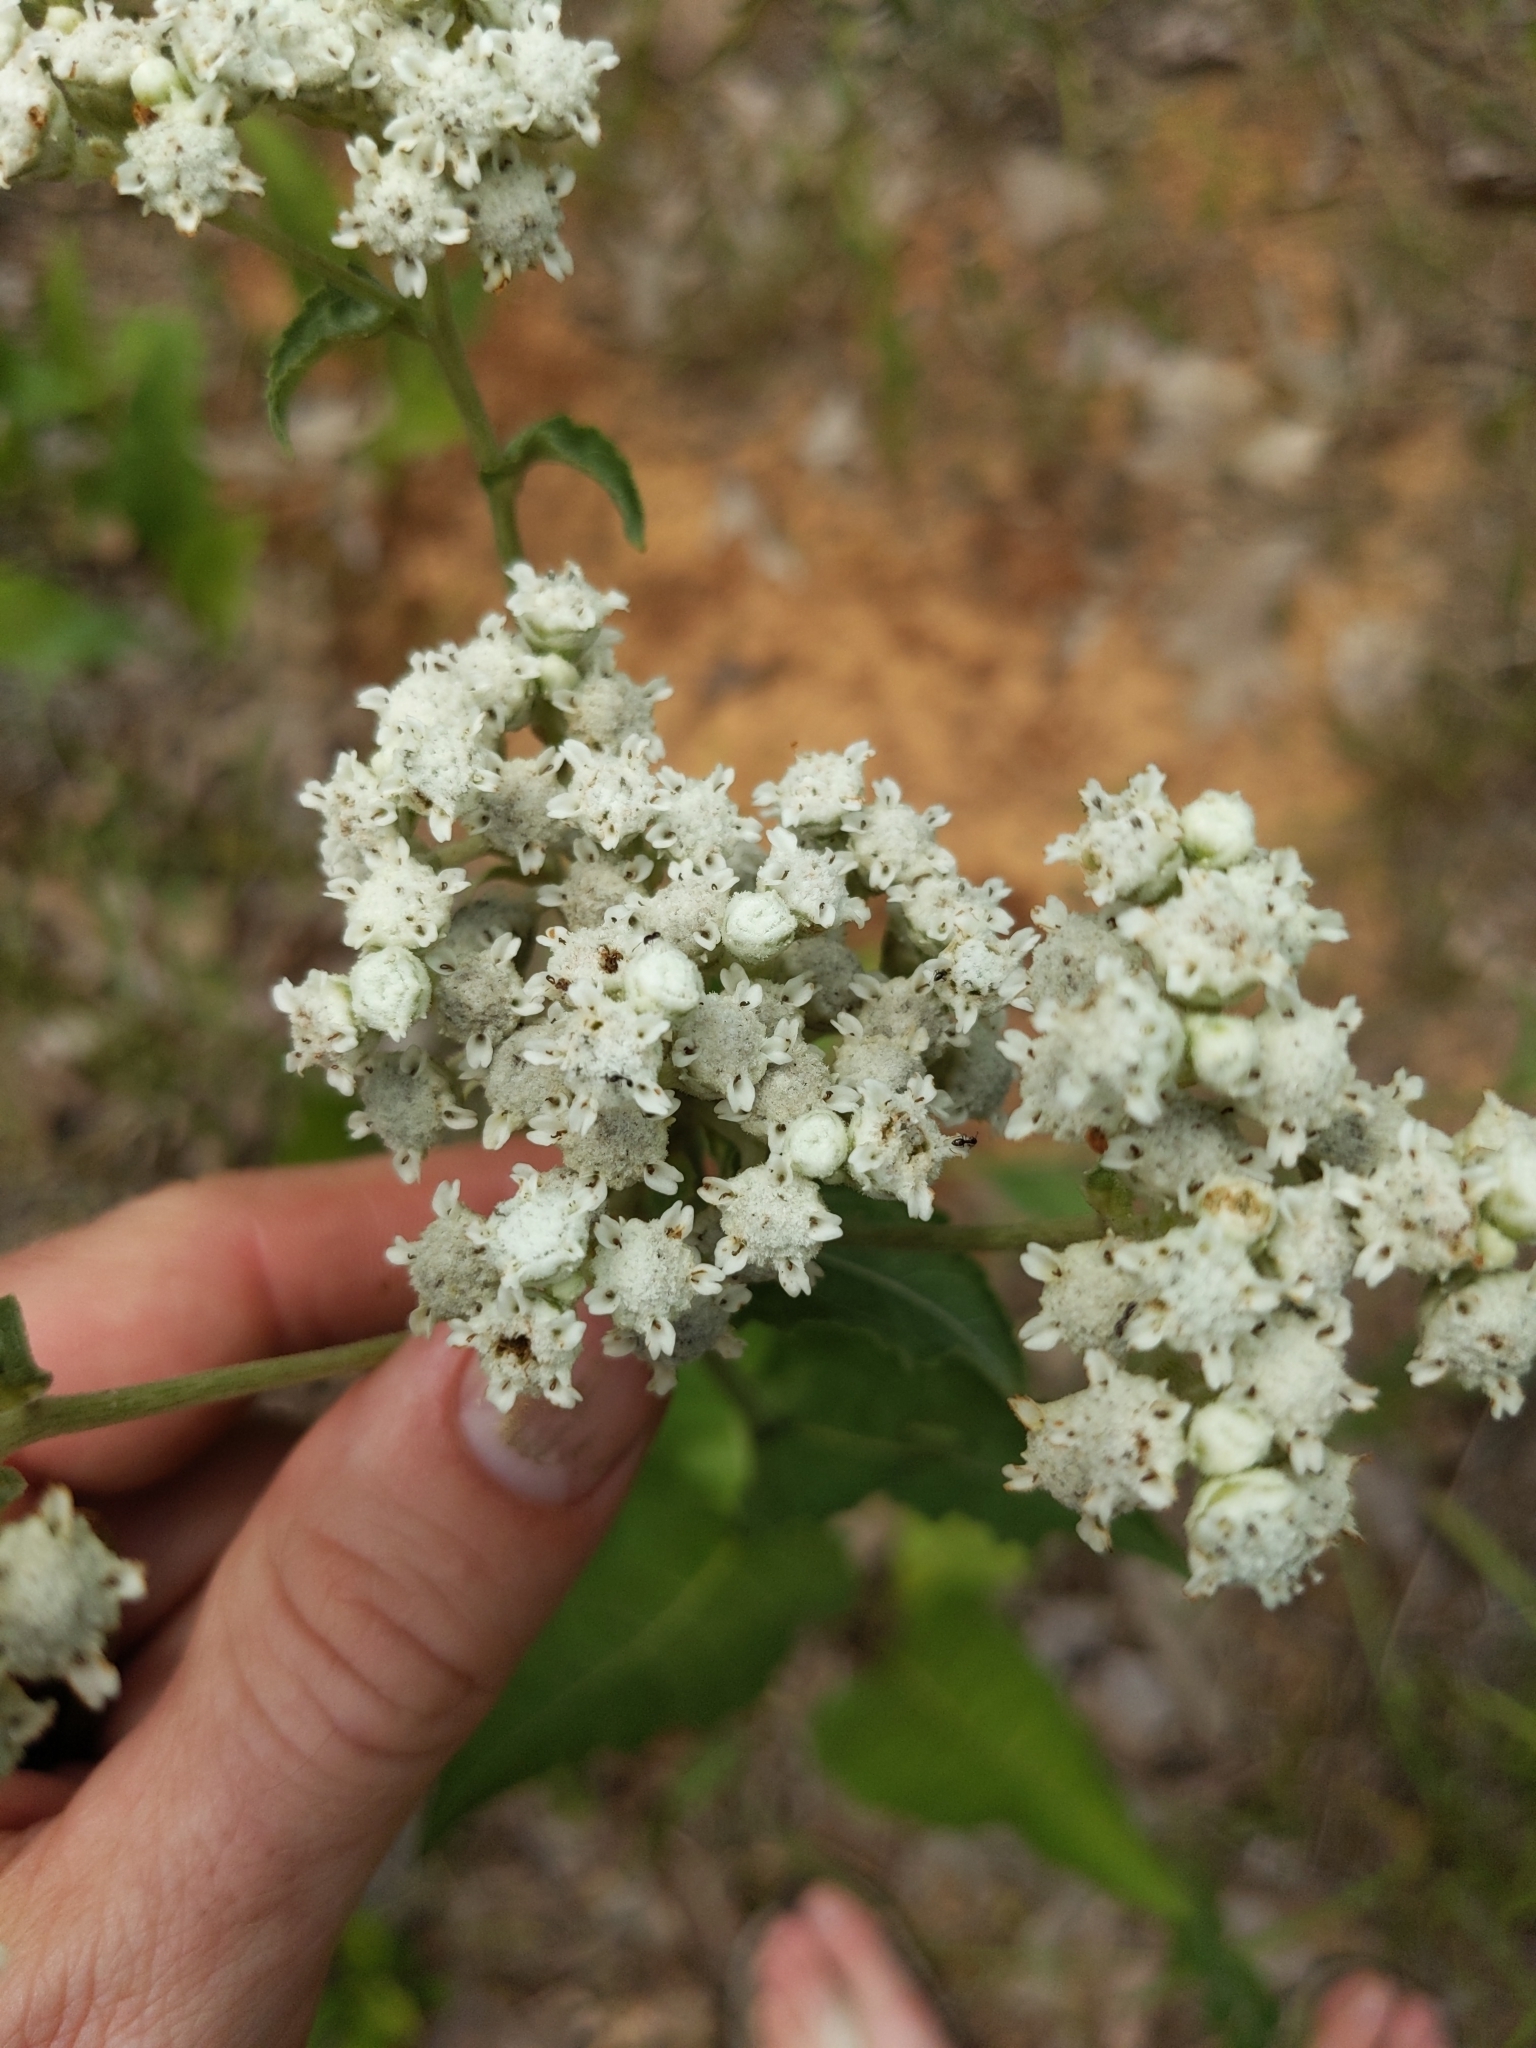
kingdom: Plantae
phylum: Tracheophyta
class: Magnoliopsida
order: Asterales
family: Asteraceae
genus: Parthenium
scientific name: Parthenium integrifolium
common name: American feverfew
